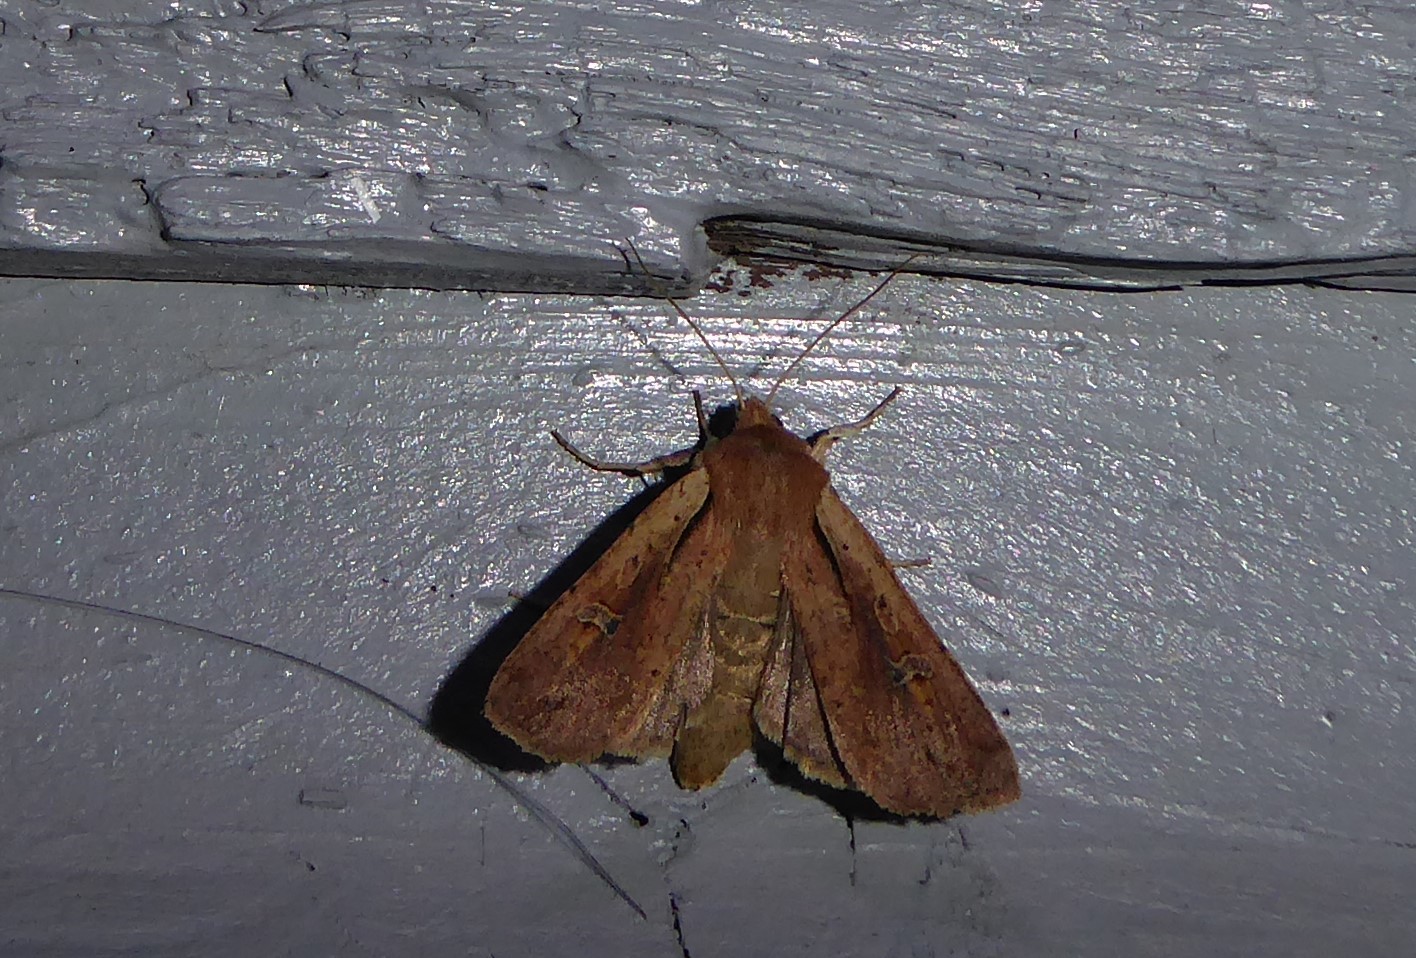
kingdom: Animalia
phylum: Arthropoda
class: Insecta
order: Lepidoptera
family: Noctuidae
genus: Ichneutica
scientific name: Ichneutica atristriga
